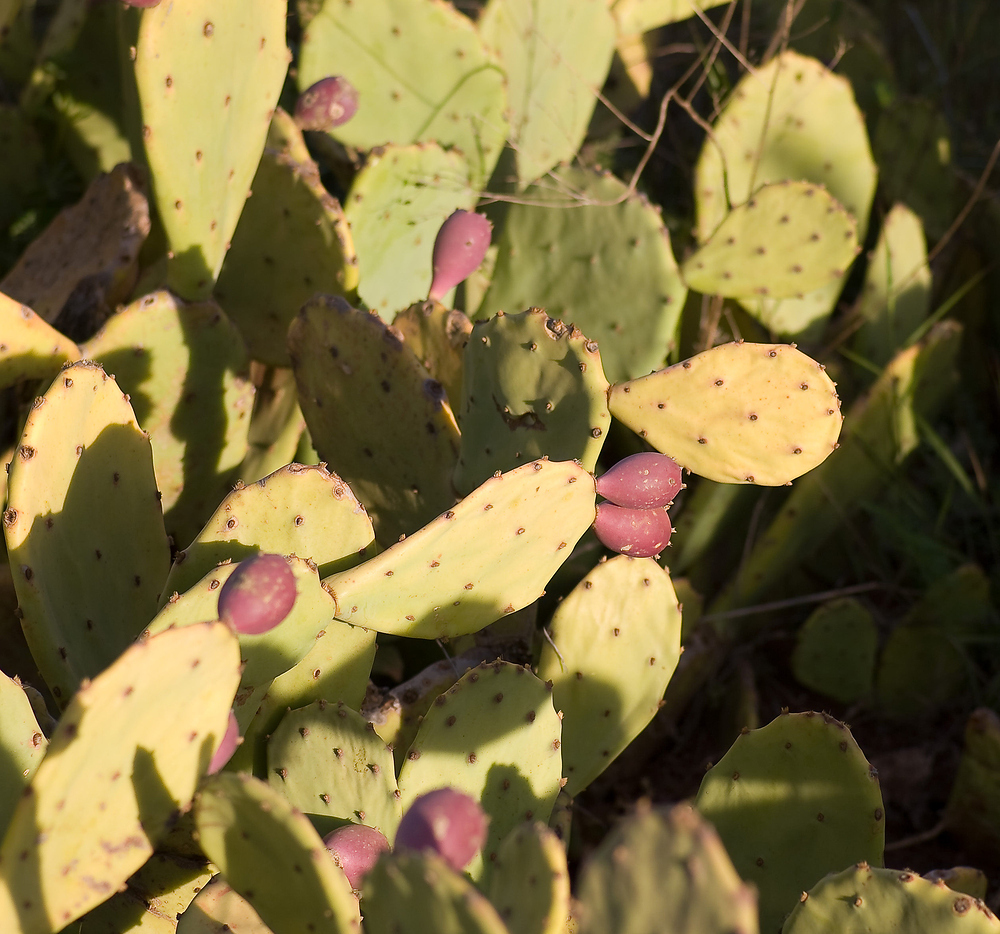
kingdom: Plantae
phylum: Tracheophyta
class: Magnoliopsida
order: Caryophyllales
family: Cactaceae
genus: Opuntia
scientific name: Opuntia anahuacensis
